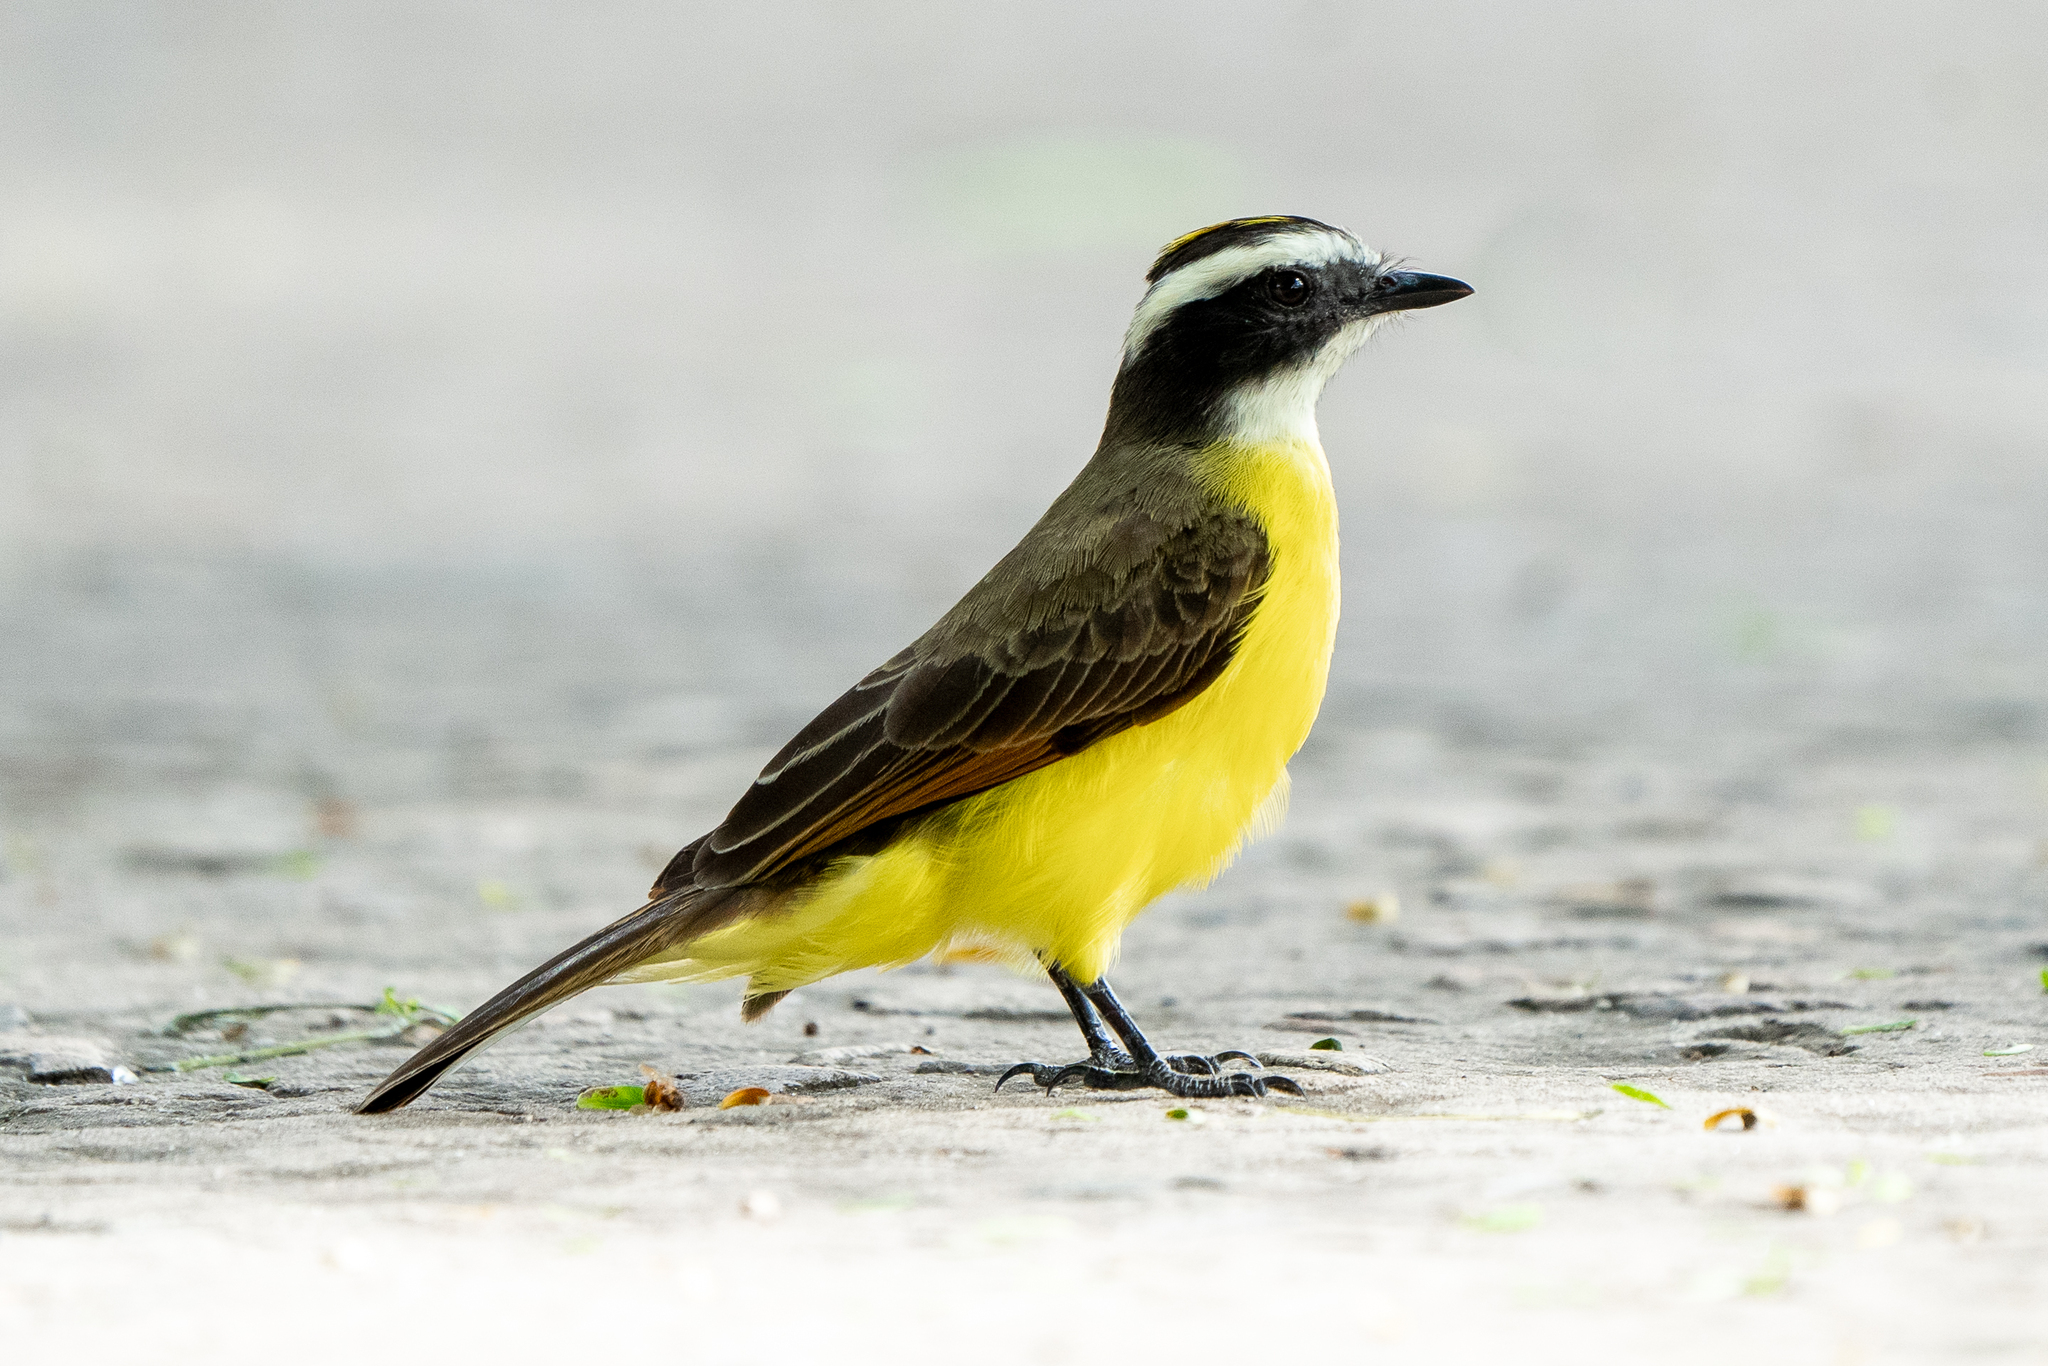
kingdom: Animalia
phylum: Chordata
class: Aves
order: Passeriformes
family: Tyrannidae
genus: Myiozetetes
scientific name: Myiozetetes cayanensis
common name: Rusty-margined flycatcher
